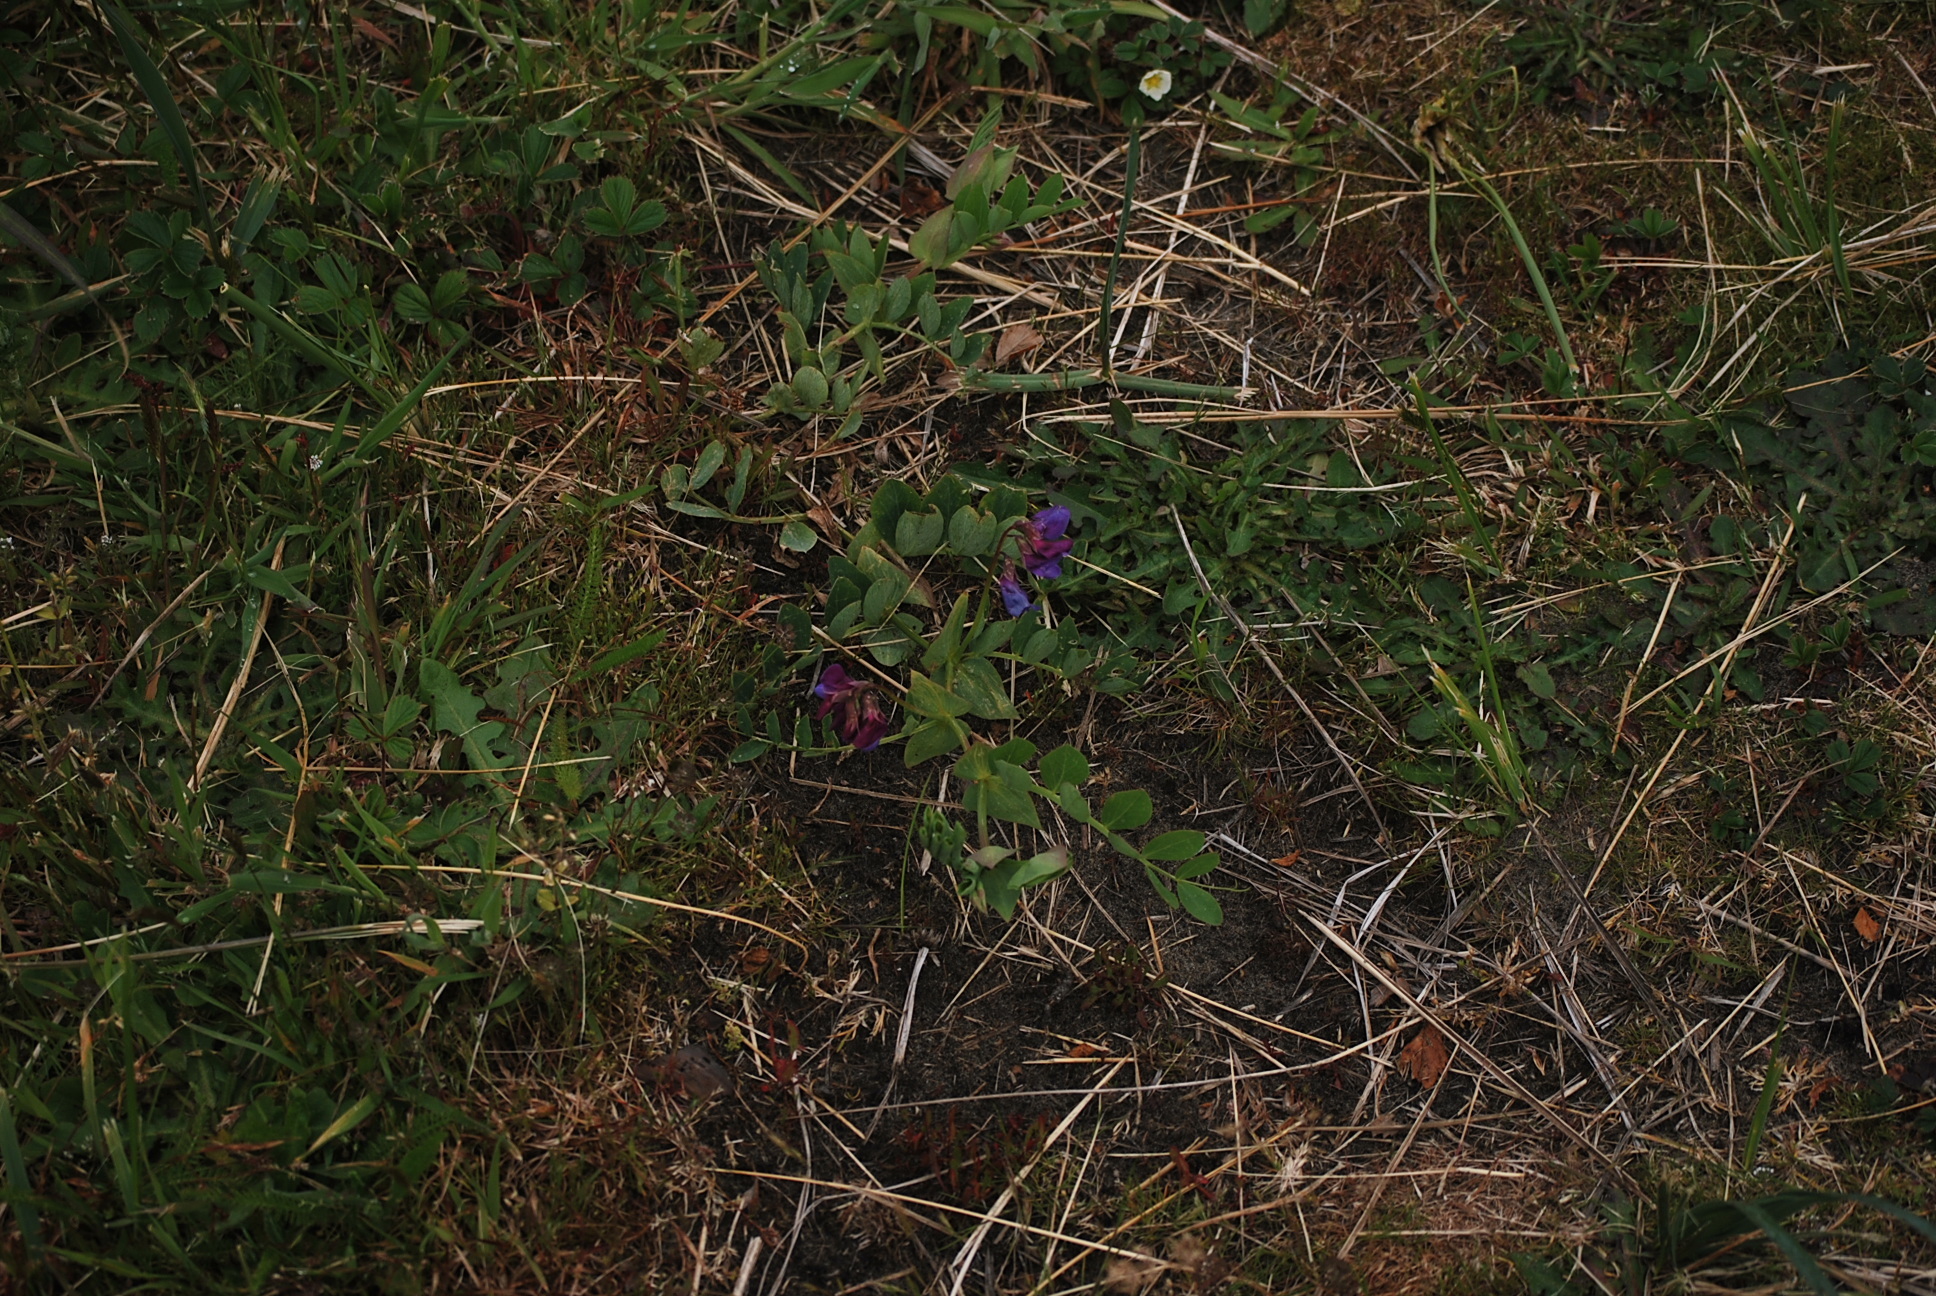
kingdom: Plantae
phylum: Tracheophyta
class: Magnoliopsida
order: Fabales
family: Fabaceae
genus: Lathyrus
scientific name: Lathyrus japonicus
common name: Sea pea
